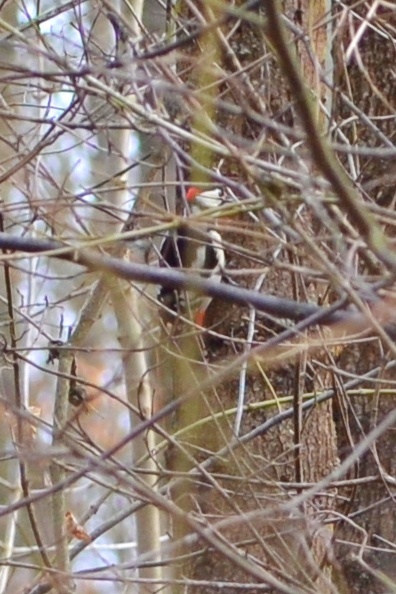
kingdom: Animalia
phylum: Chordata
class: Aves
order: Piciformes
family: Picidae
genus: Dendrocopos
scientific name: Dendrocopos major
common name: Great spotted woodpecker
